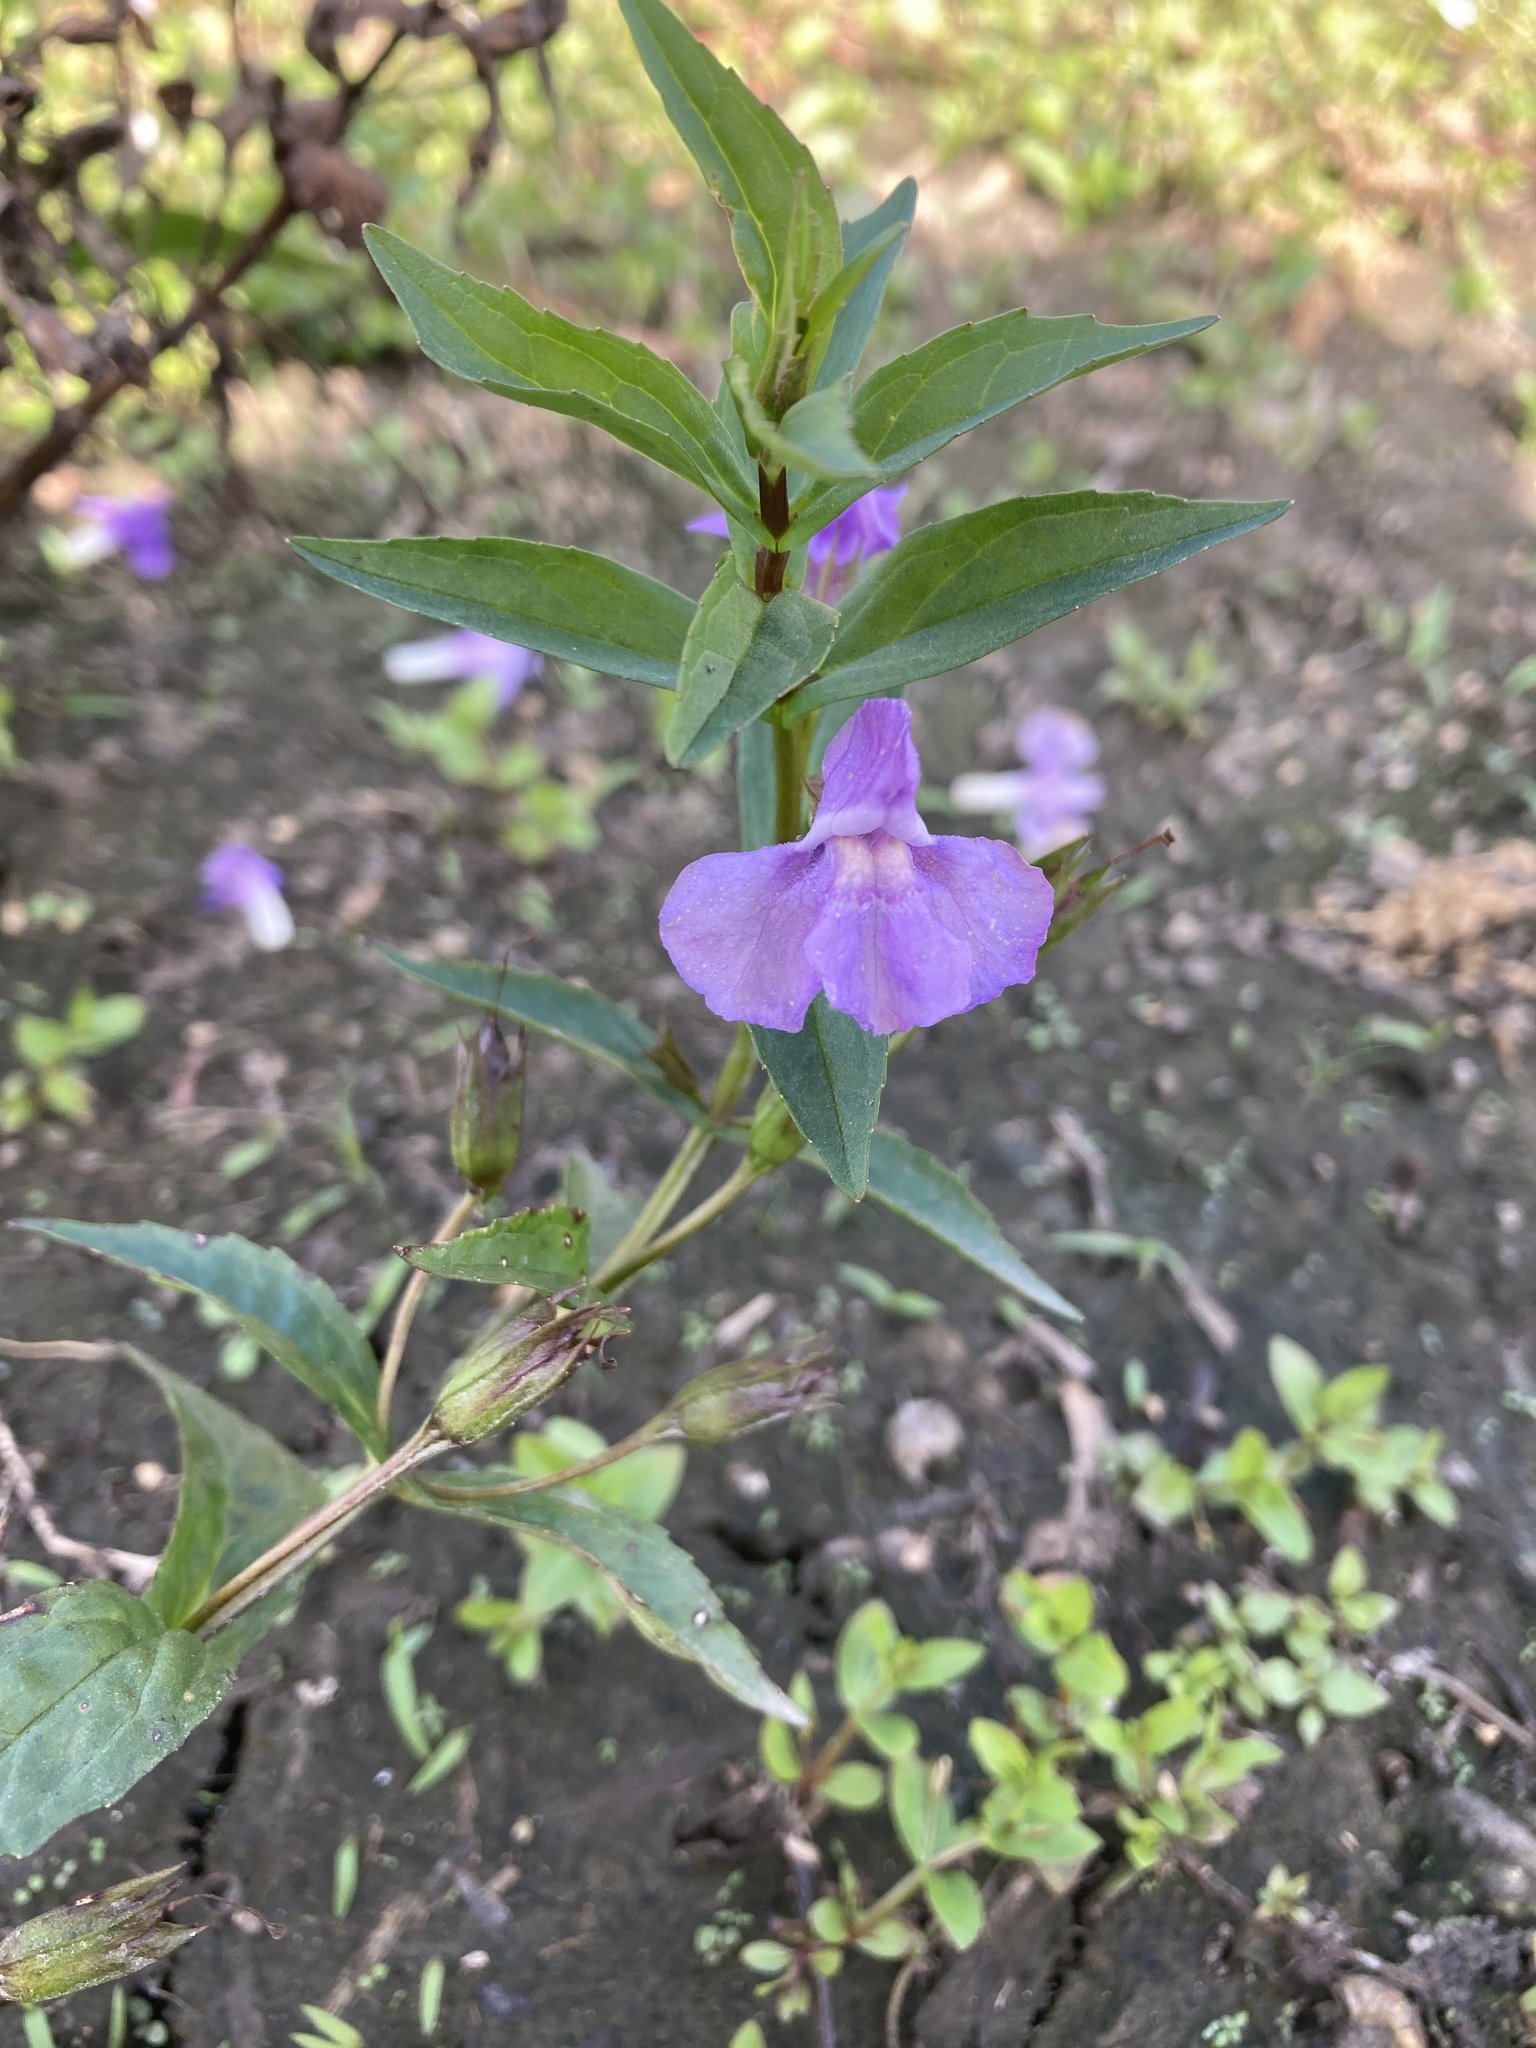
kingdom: Plantae
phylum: Tracheophyta
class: Magnoliopsida
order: Lamiales
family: Phrymaceae
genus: Mimulus
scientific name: Mimulus ringens
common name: Allegheny monkeyflower
